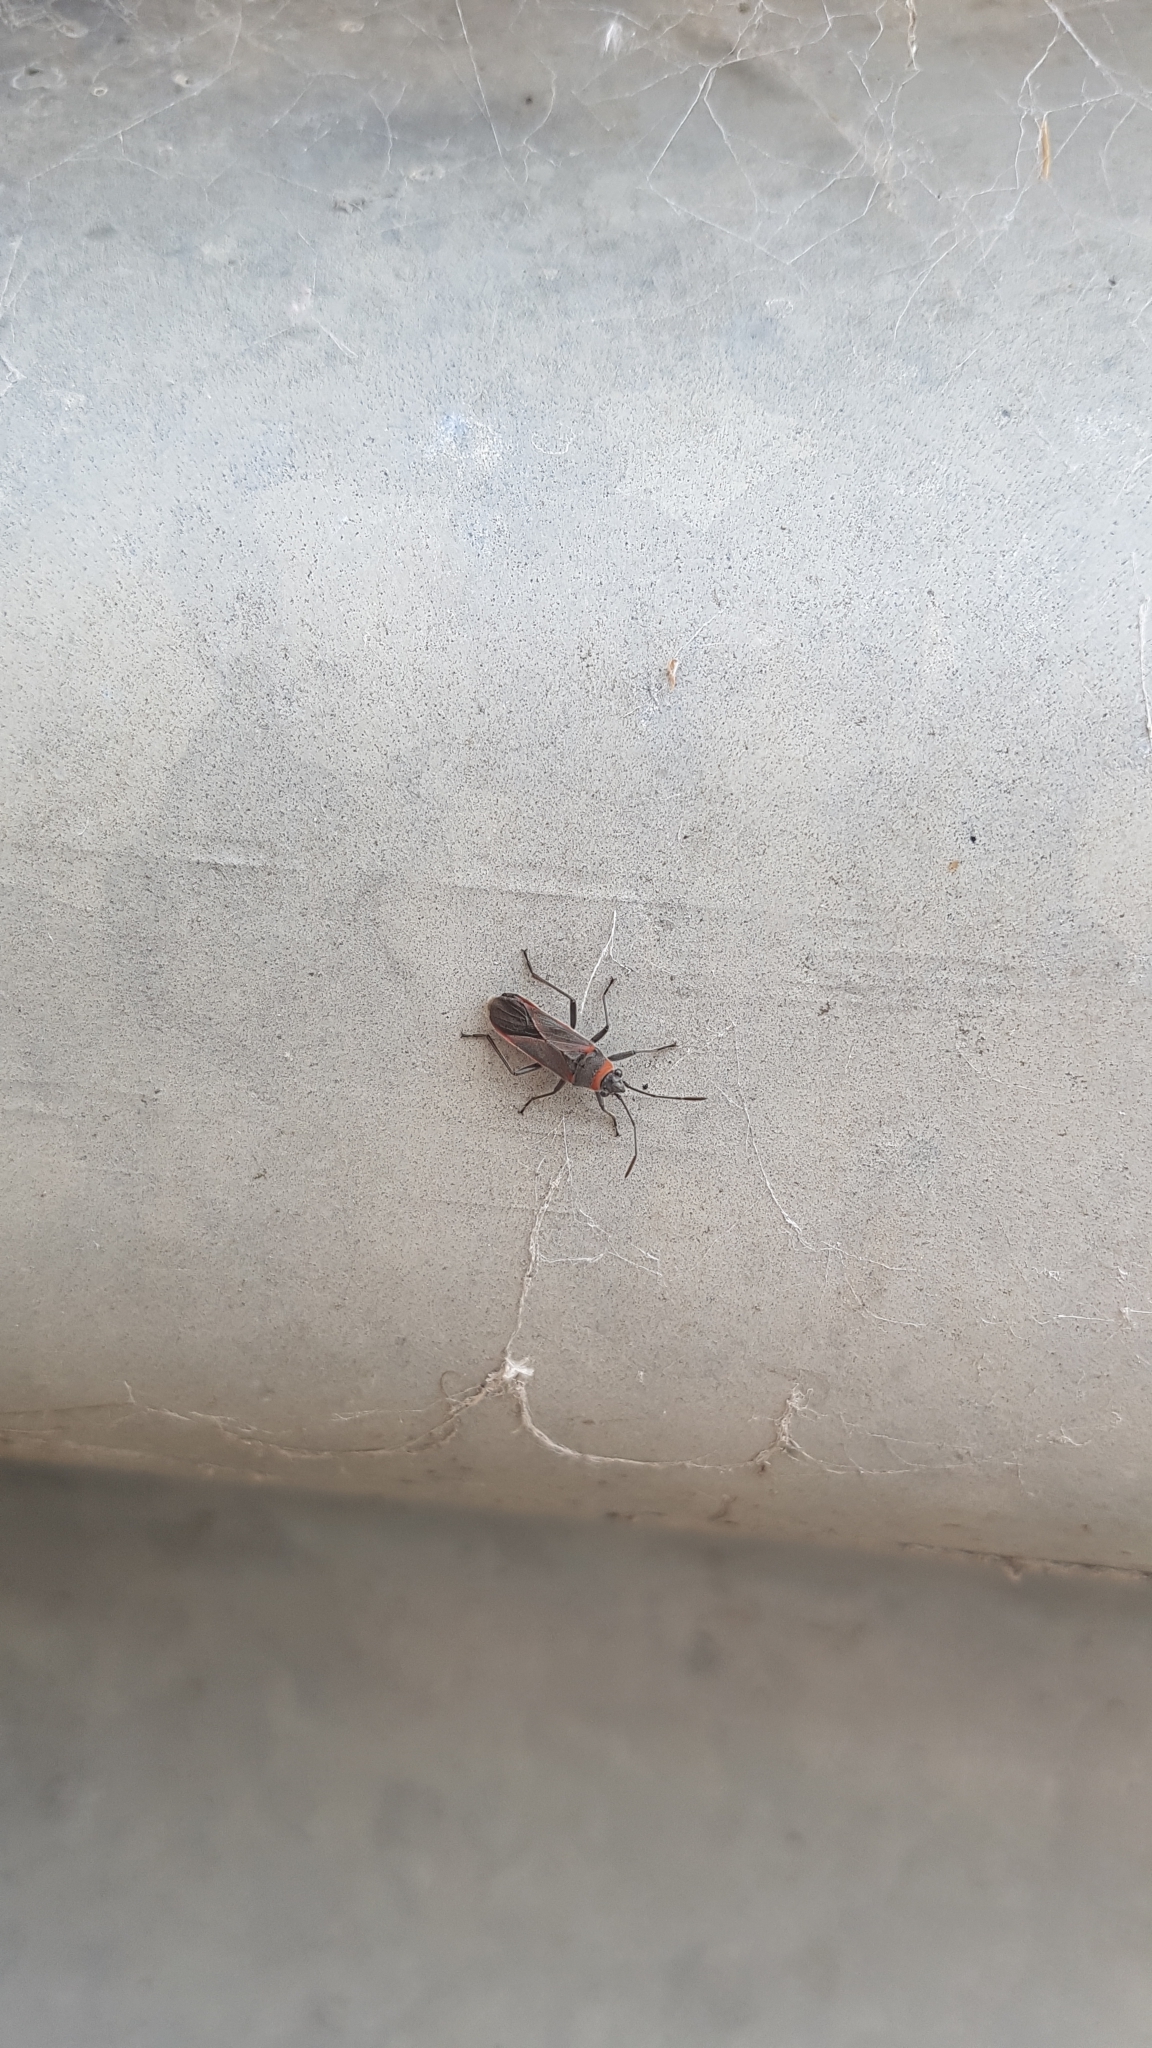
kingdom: Animalia
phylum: Arthropoda
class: Insecta
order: Hemiptera
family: Lygaeidae
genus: Arocatus
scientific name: Arocatus rusticus
